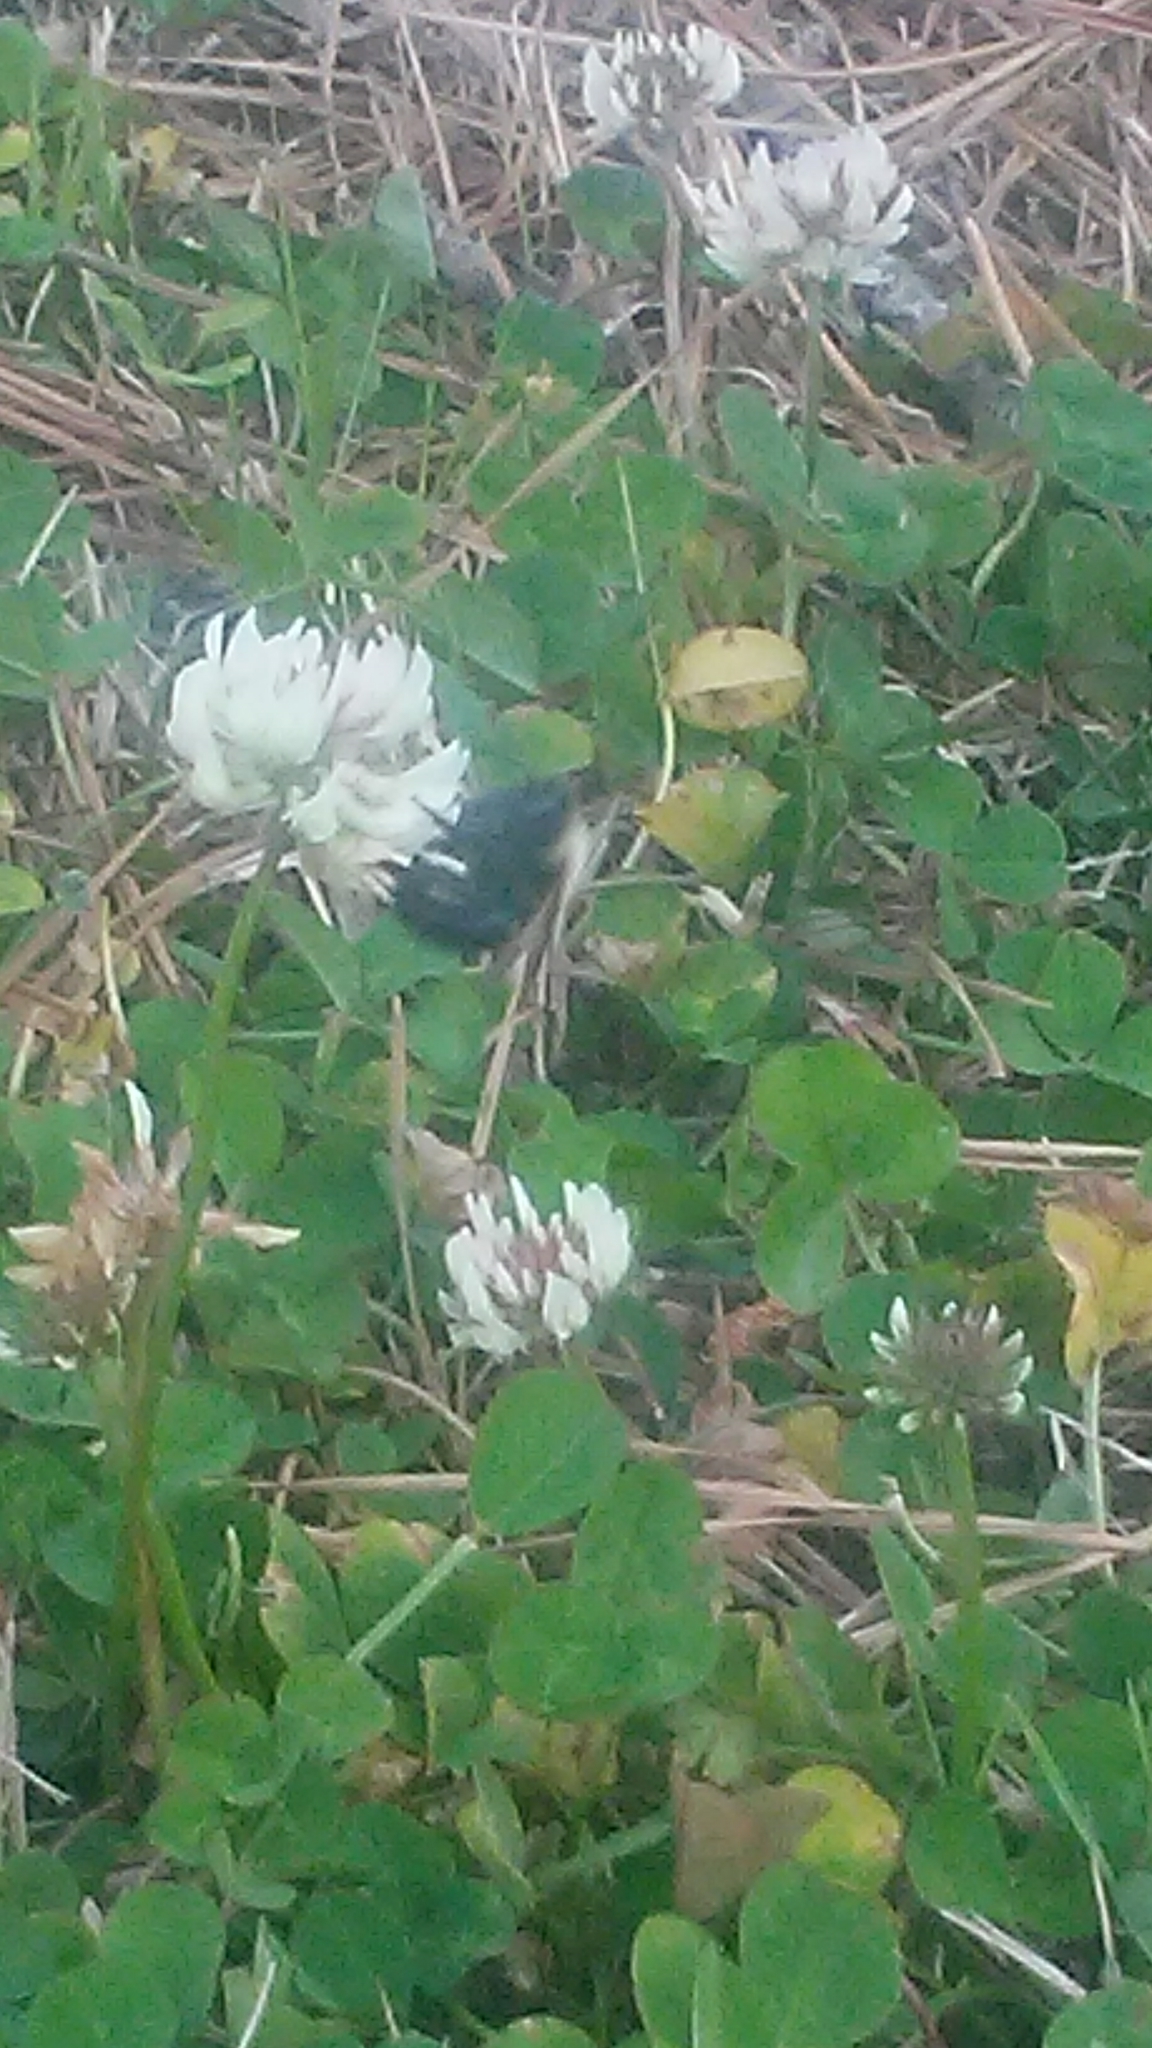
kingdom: Animalia
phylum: Arthropoda
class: Insecta
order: Hymenoptera
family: Apidae
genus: Bombus
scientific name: Bombus impatiens
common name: Common eastern bumble bee
